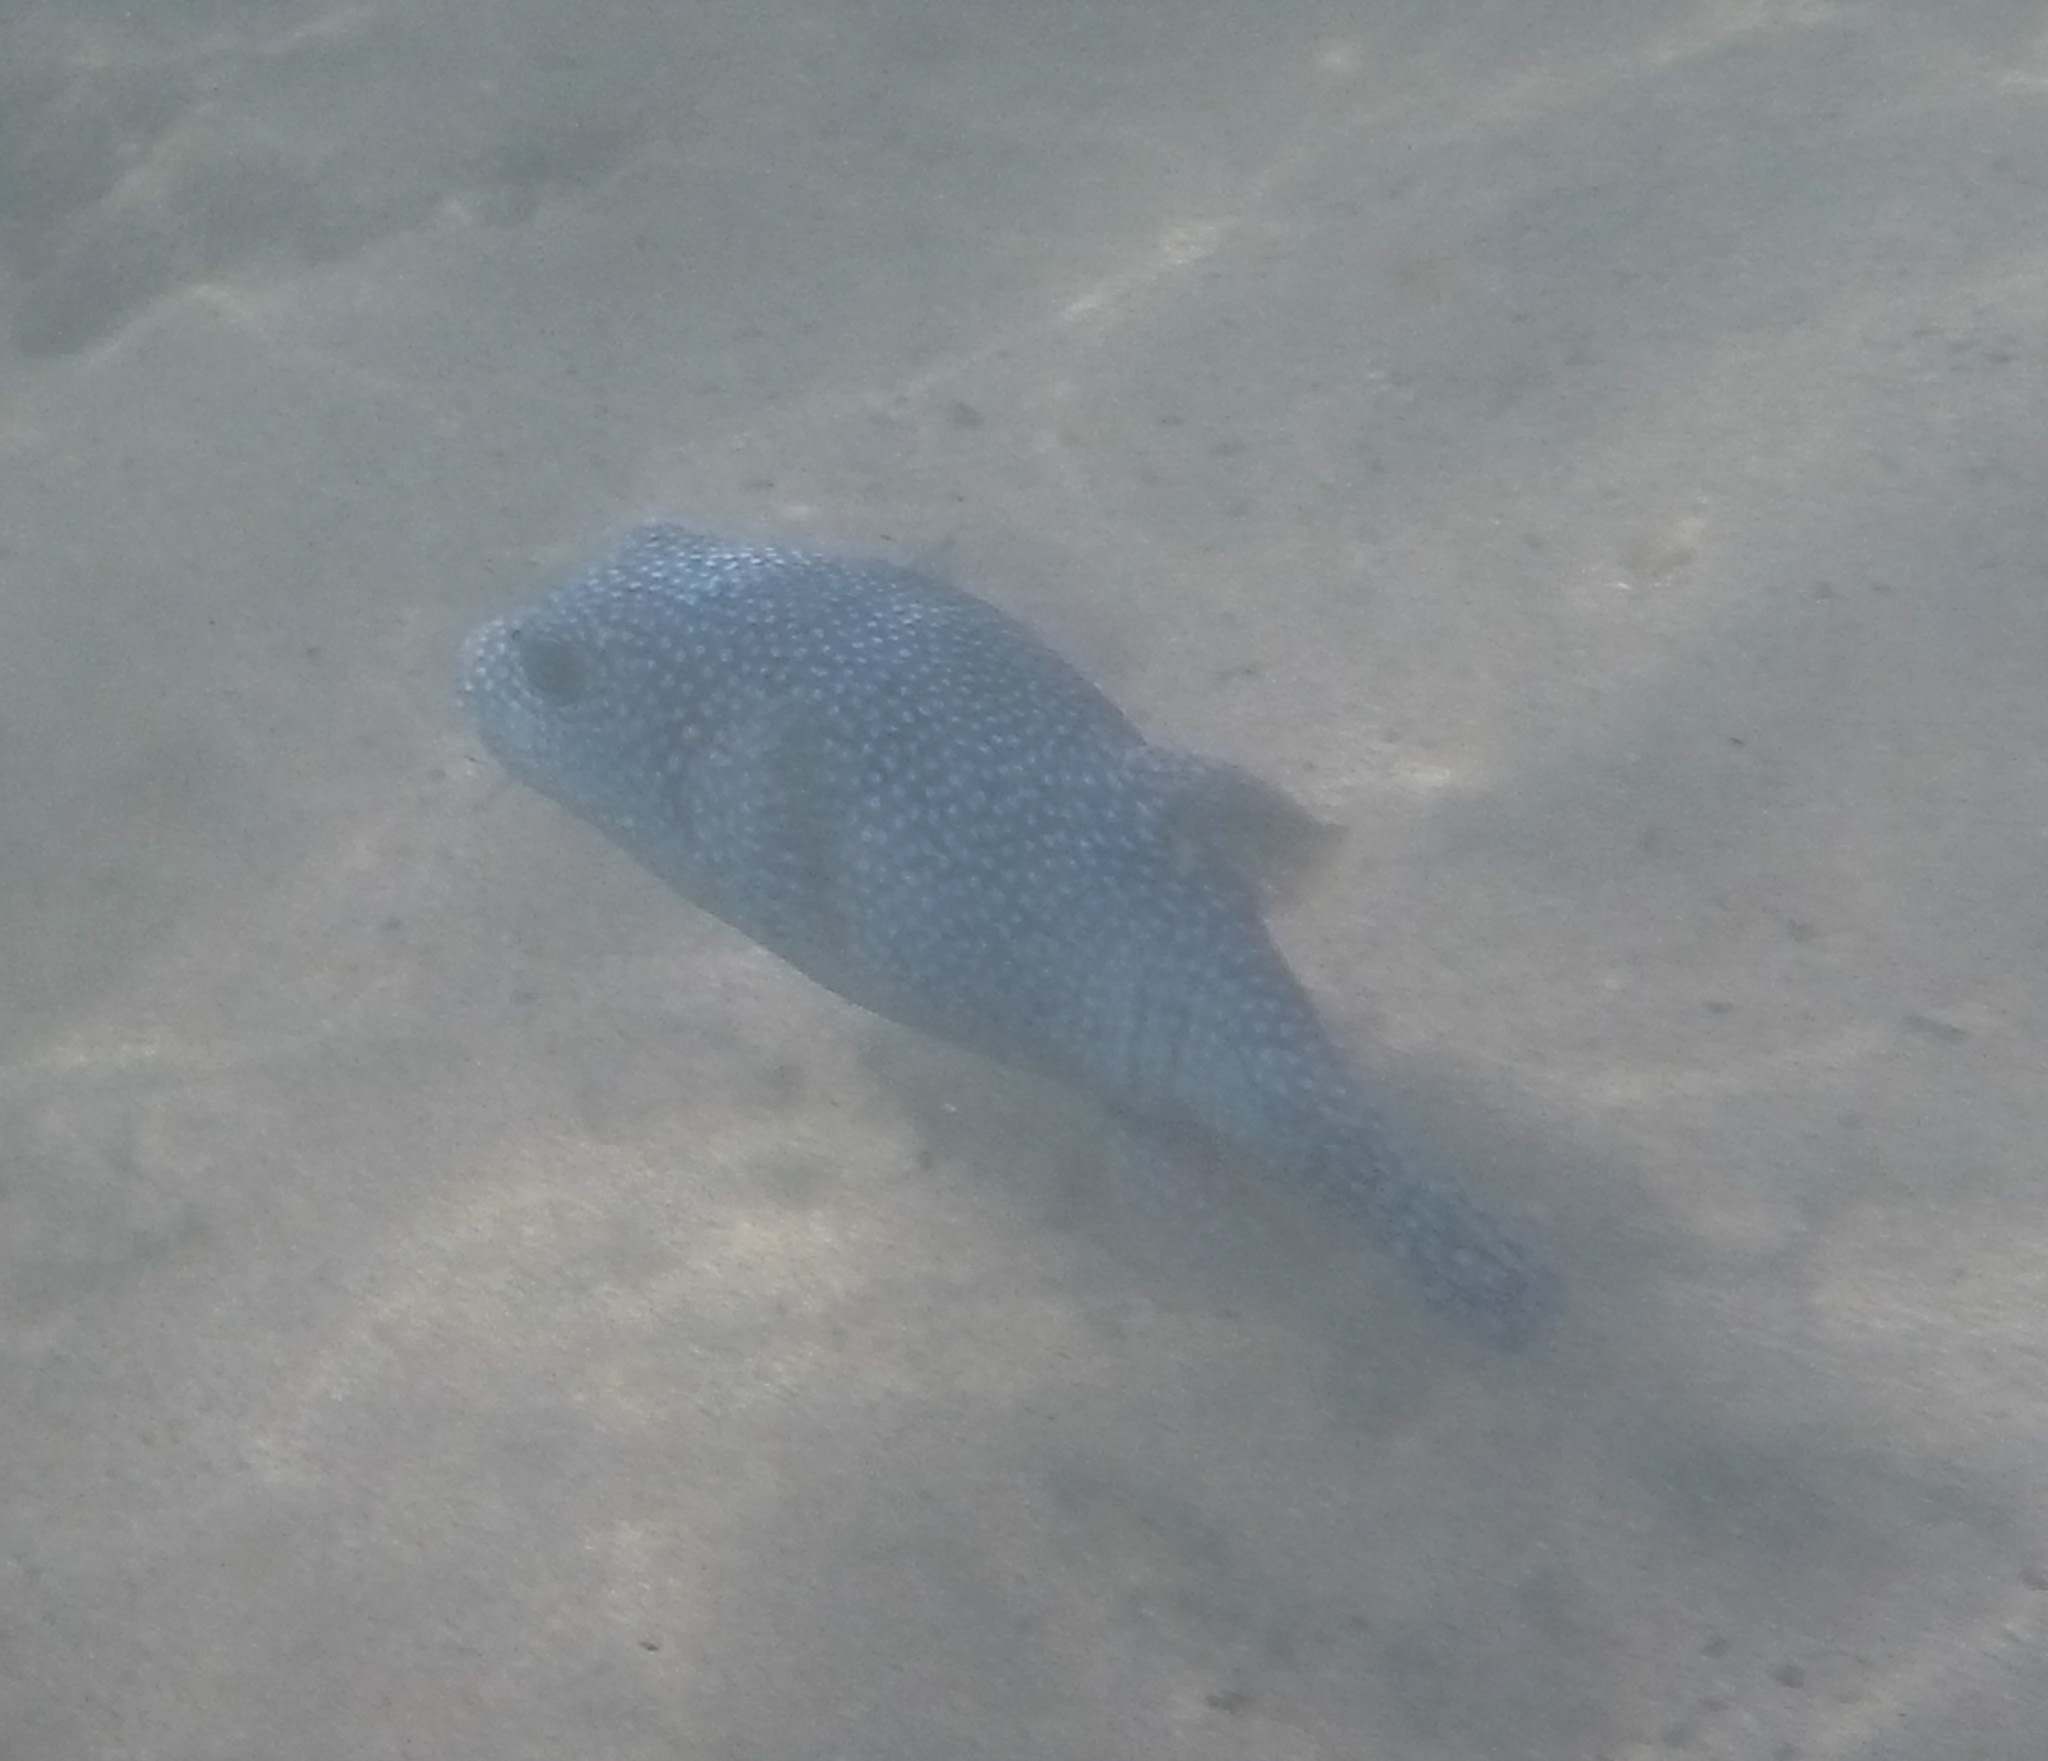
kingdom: Animalia
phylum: Chordata
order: Tetraodontiformes
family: Tetraodontidae
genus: Arothron
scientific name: Arothron meleagris
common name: Guinea-fowl pufferfish
